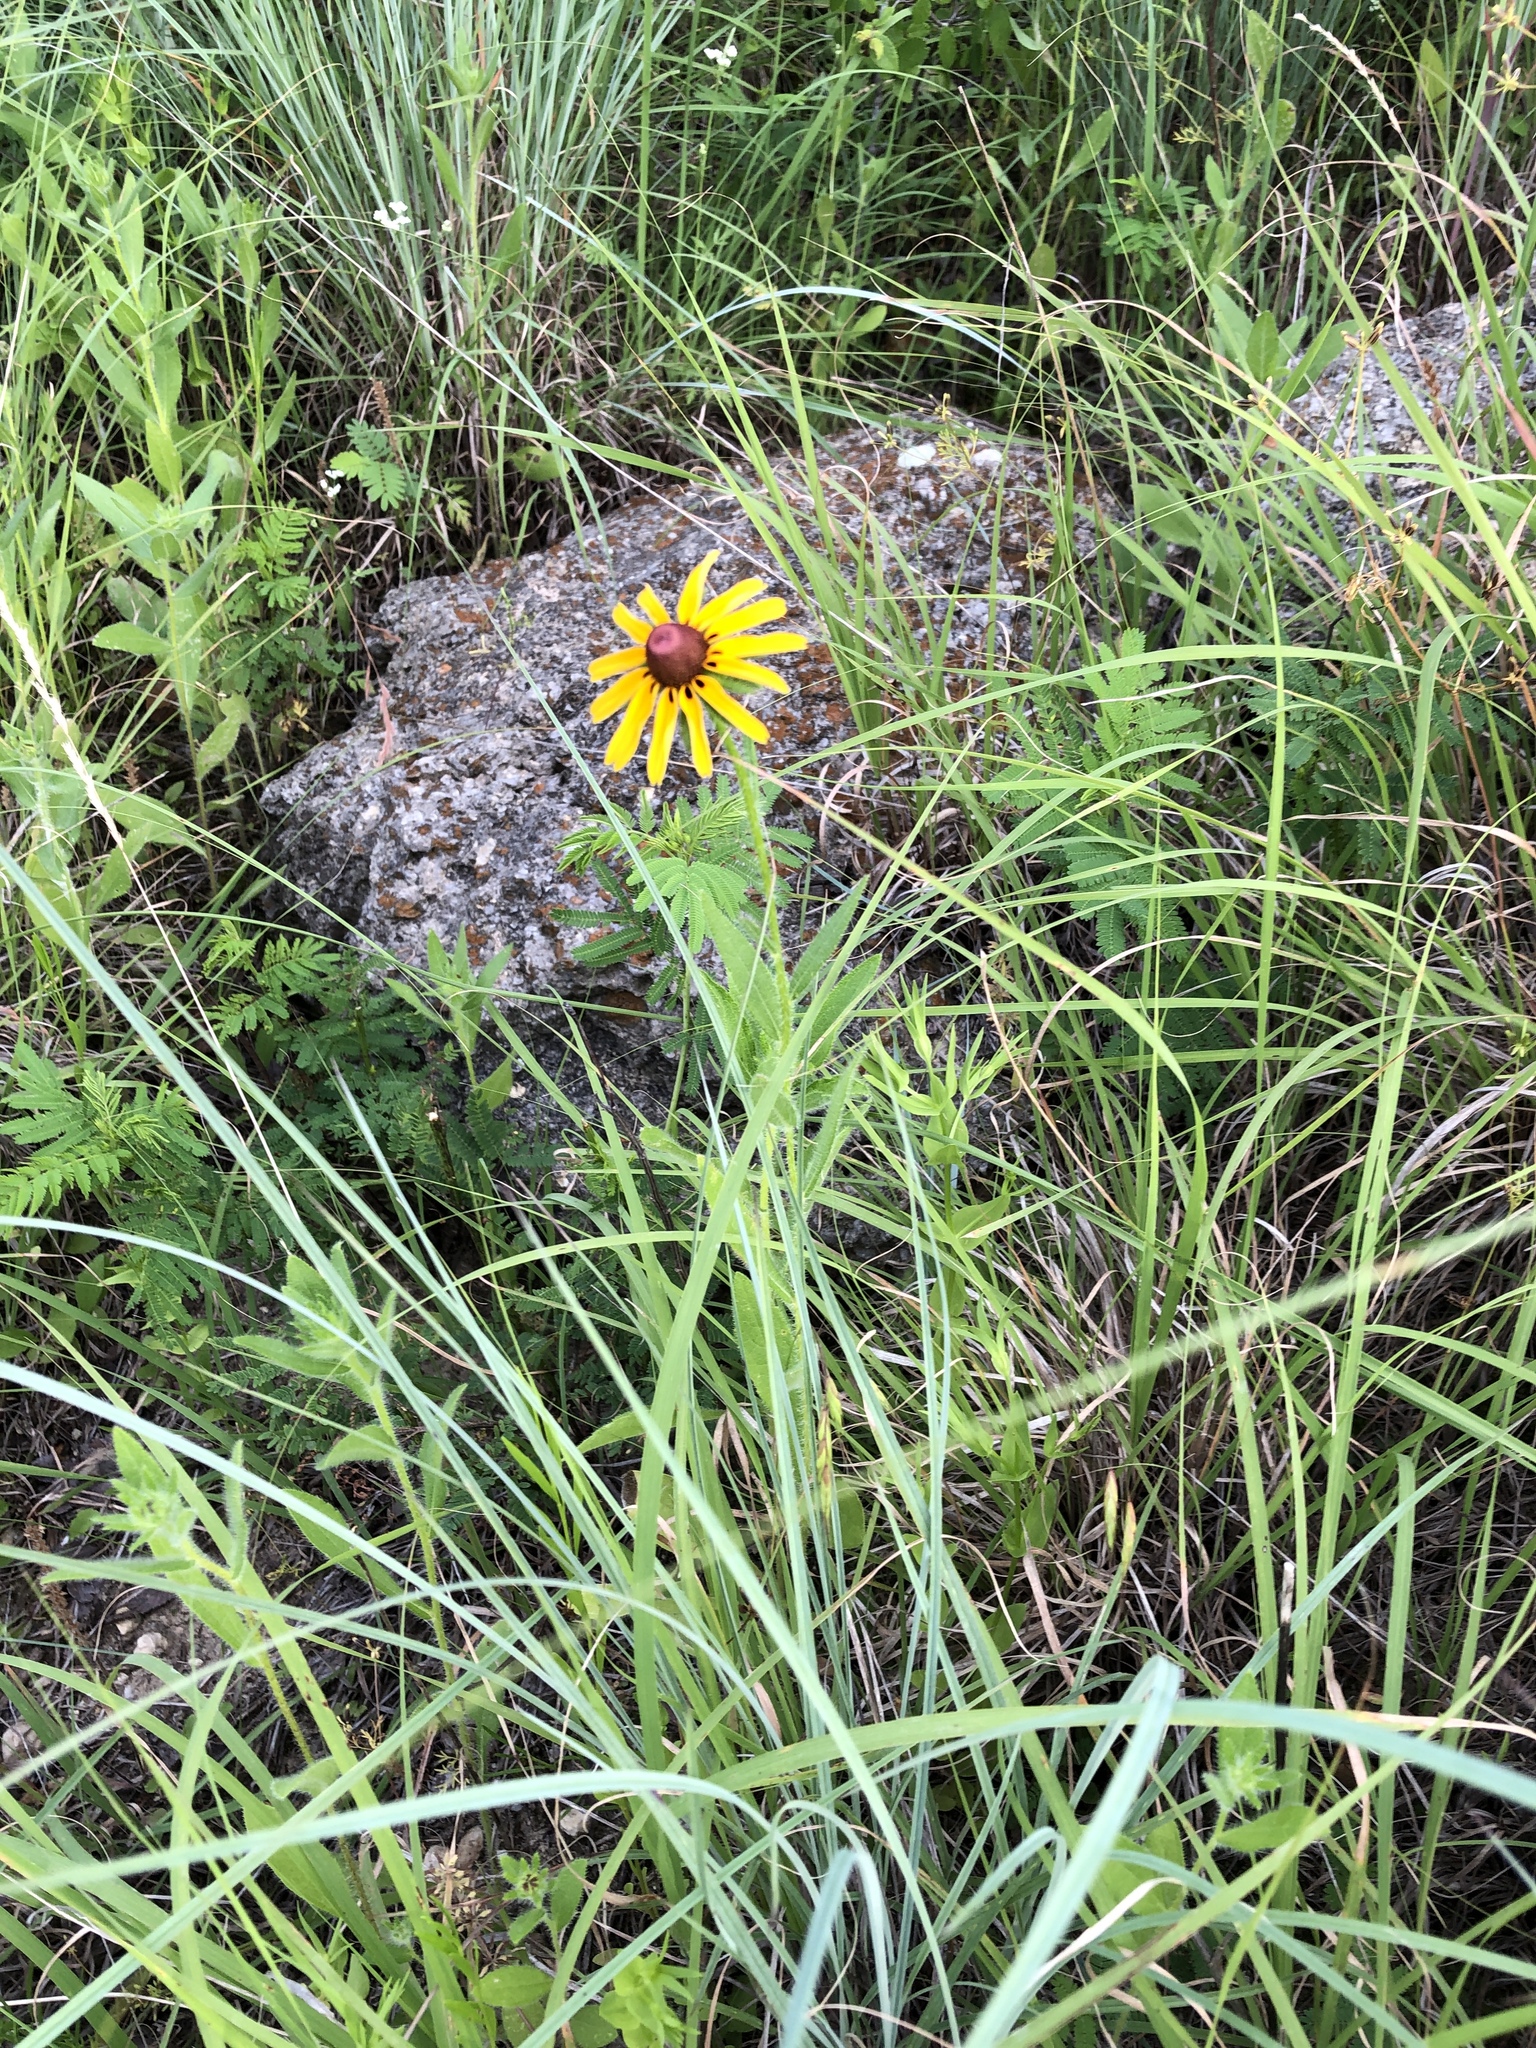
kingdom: Plantae
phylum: Tracheophyta
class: Magnoliopsida
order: Asterales
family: Asteraceae
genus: Rudbeckia
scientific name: Rudbeckia hirta
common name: Black-eyed-susan
